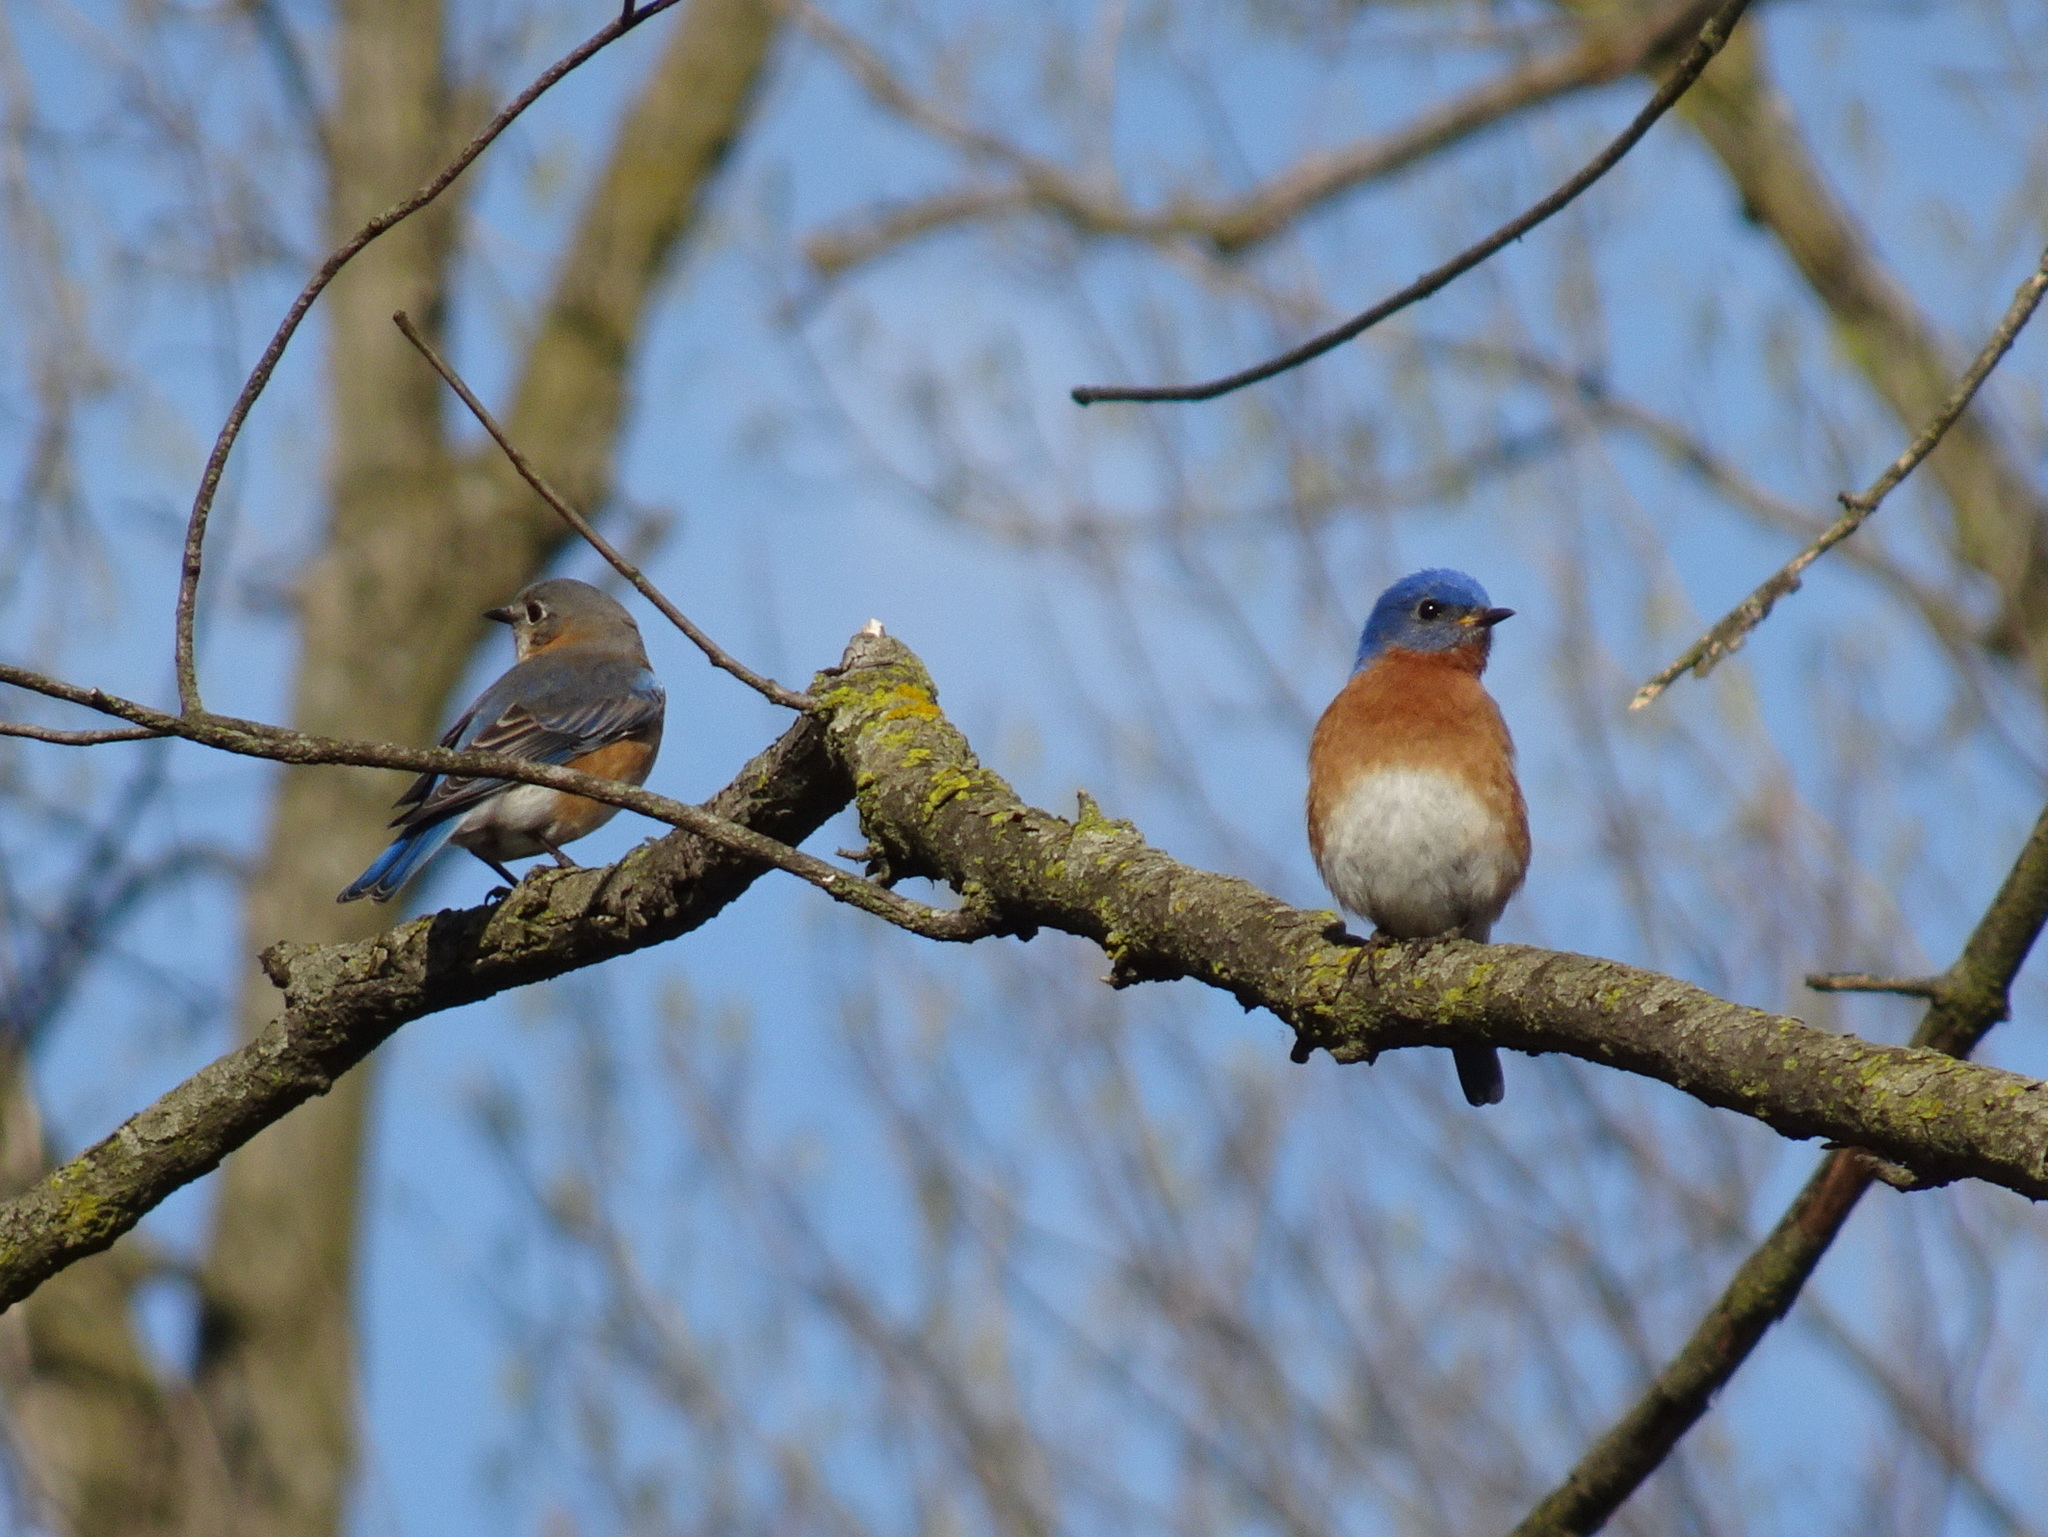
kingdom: Animalia
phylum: Chordata
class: Aves
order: Passeriformes
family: Turdidae
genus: Sialia
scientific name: Sialia sialis
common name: Eastern bluebird
